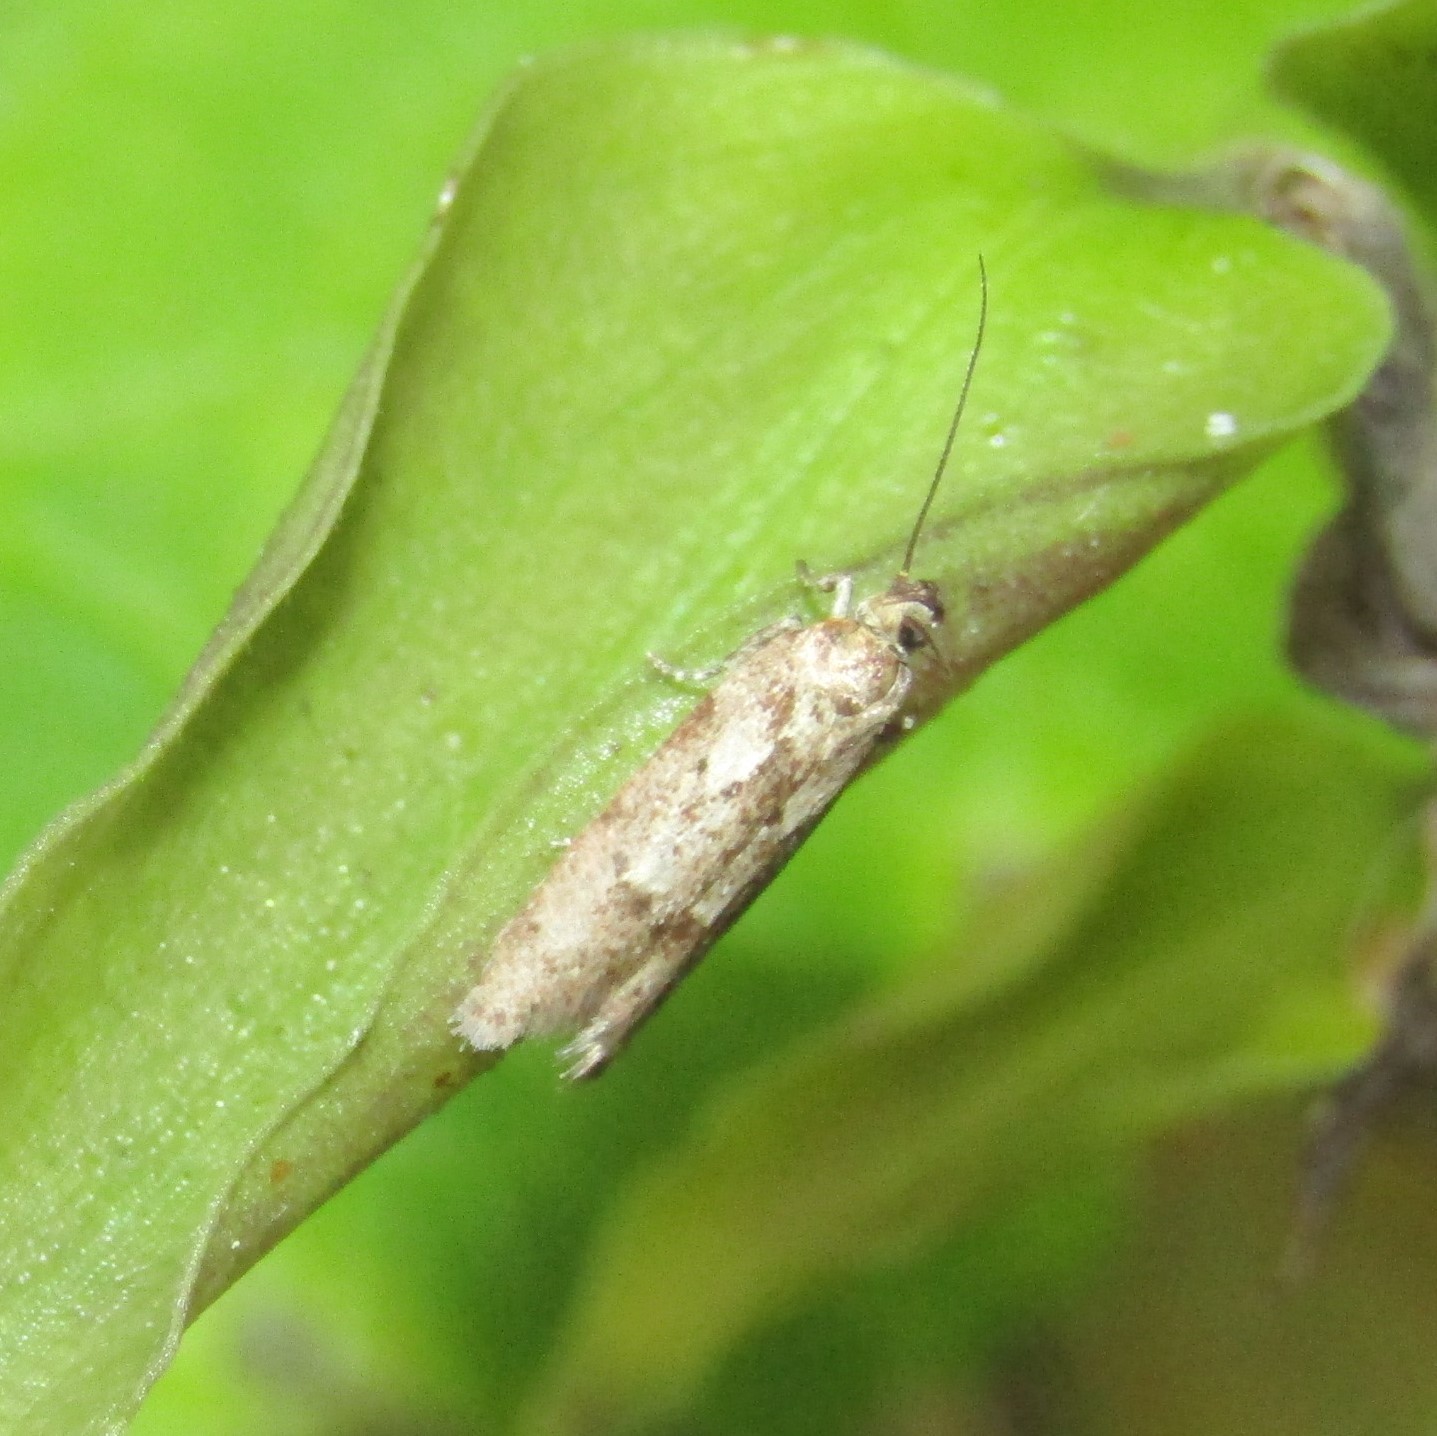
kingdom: Animalia
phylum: Arthropoda
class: Insecta
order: Lepidoptera
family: Oecophoridae
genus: Chersadaula
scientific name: Chersadaula ochrogastra
